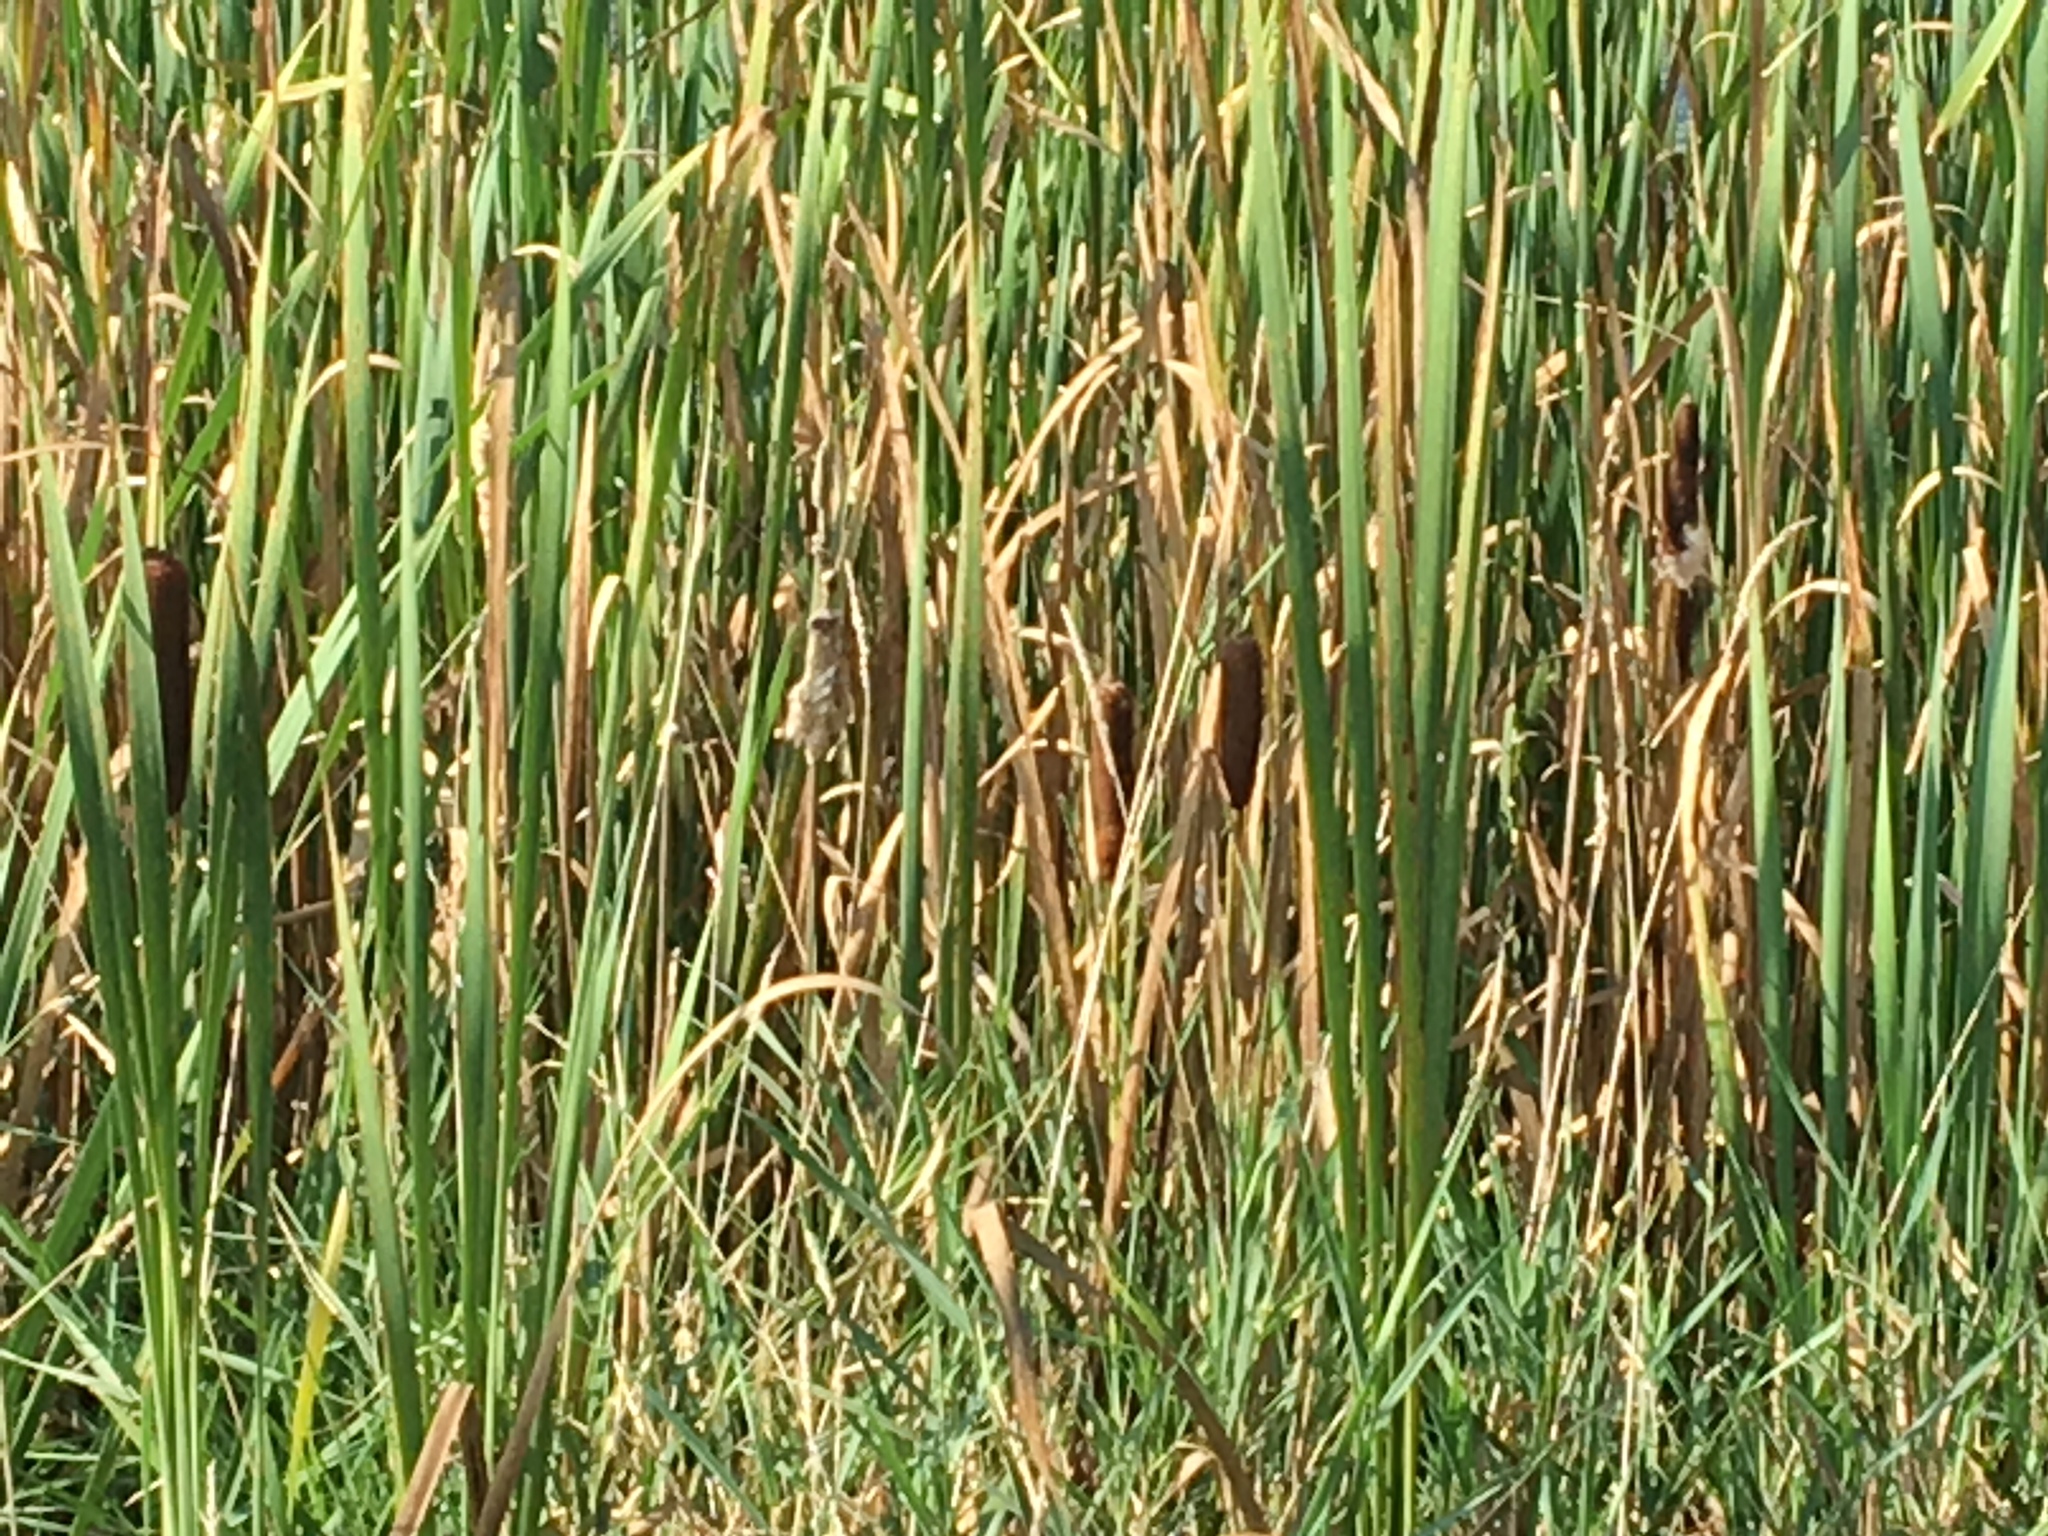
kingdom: Plantae
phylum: Tracheophyta
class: Liliopsida
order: Poales
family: Typhaceae
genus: Typha
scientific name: Typha latifolia
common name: Broadleaf cattail
